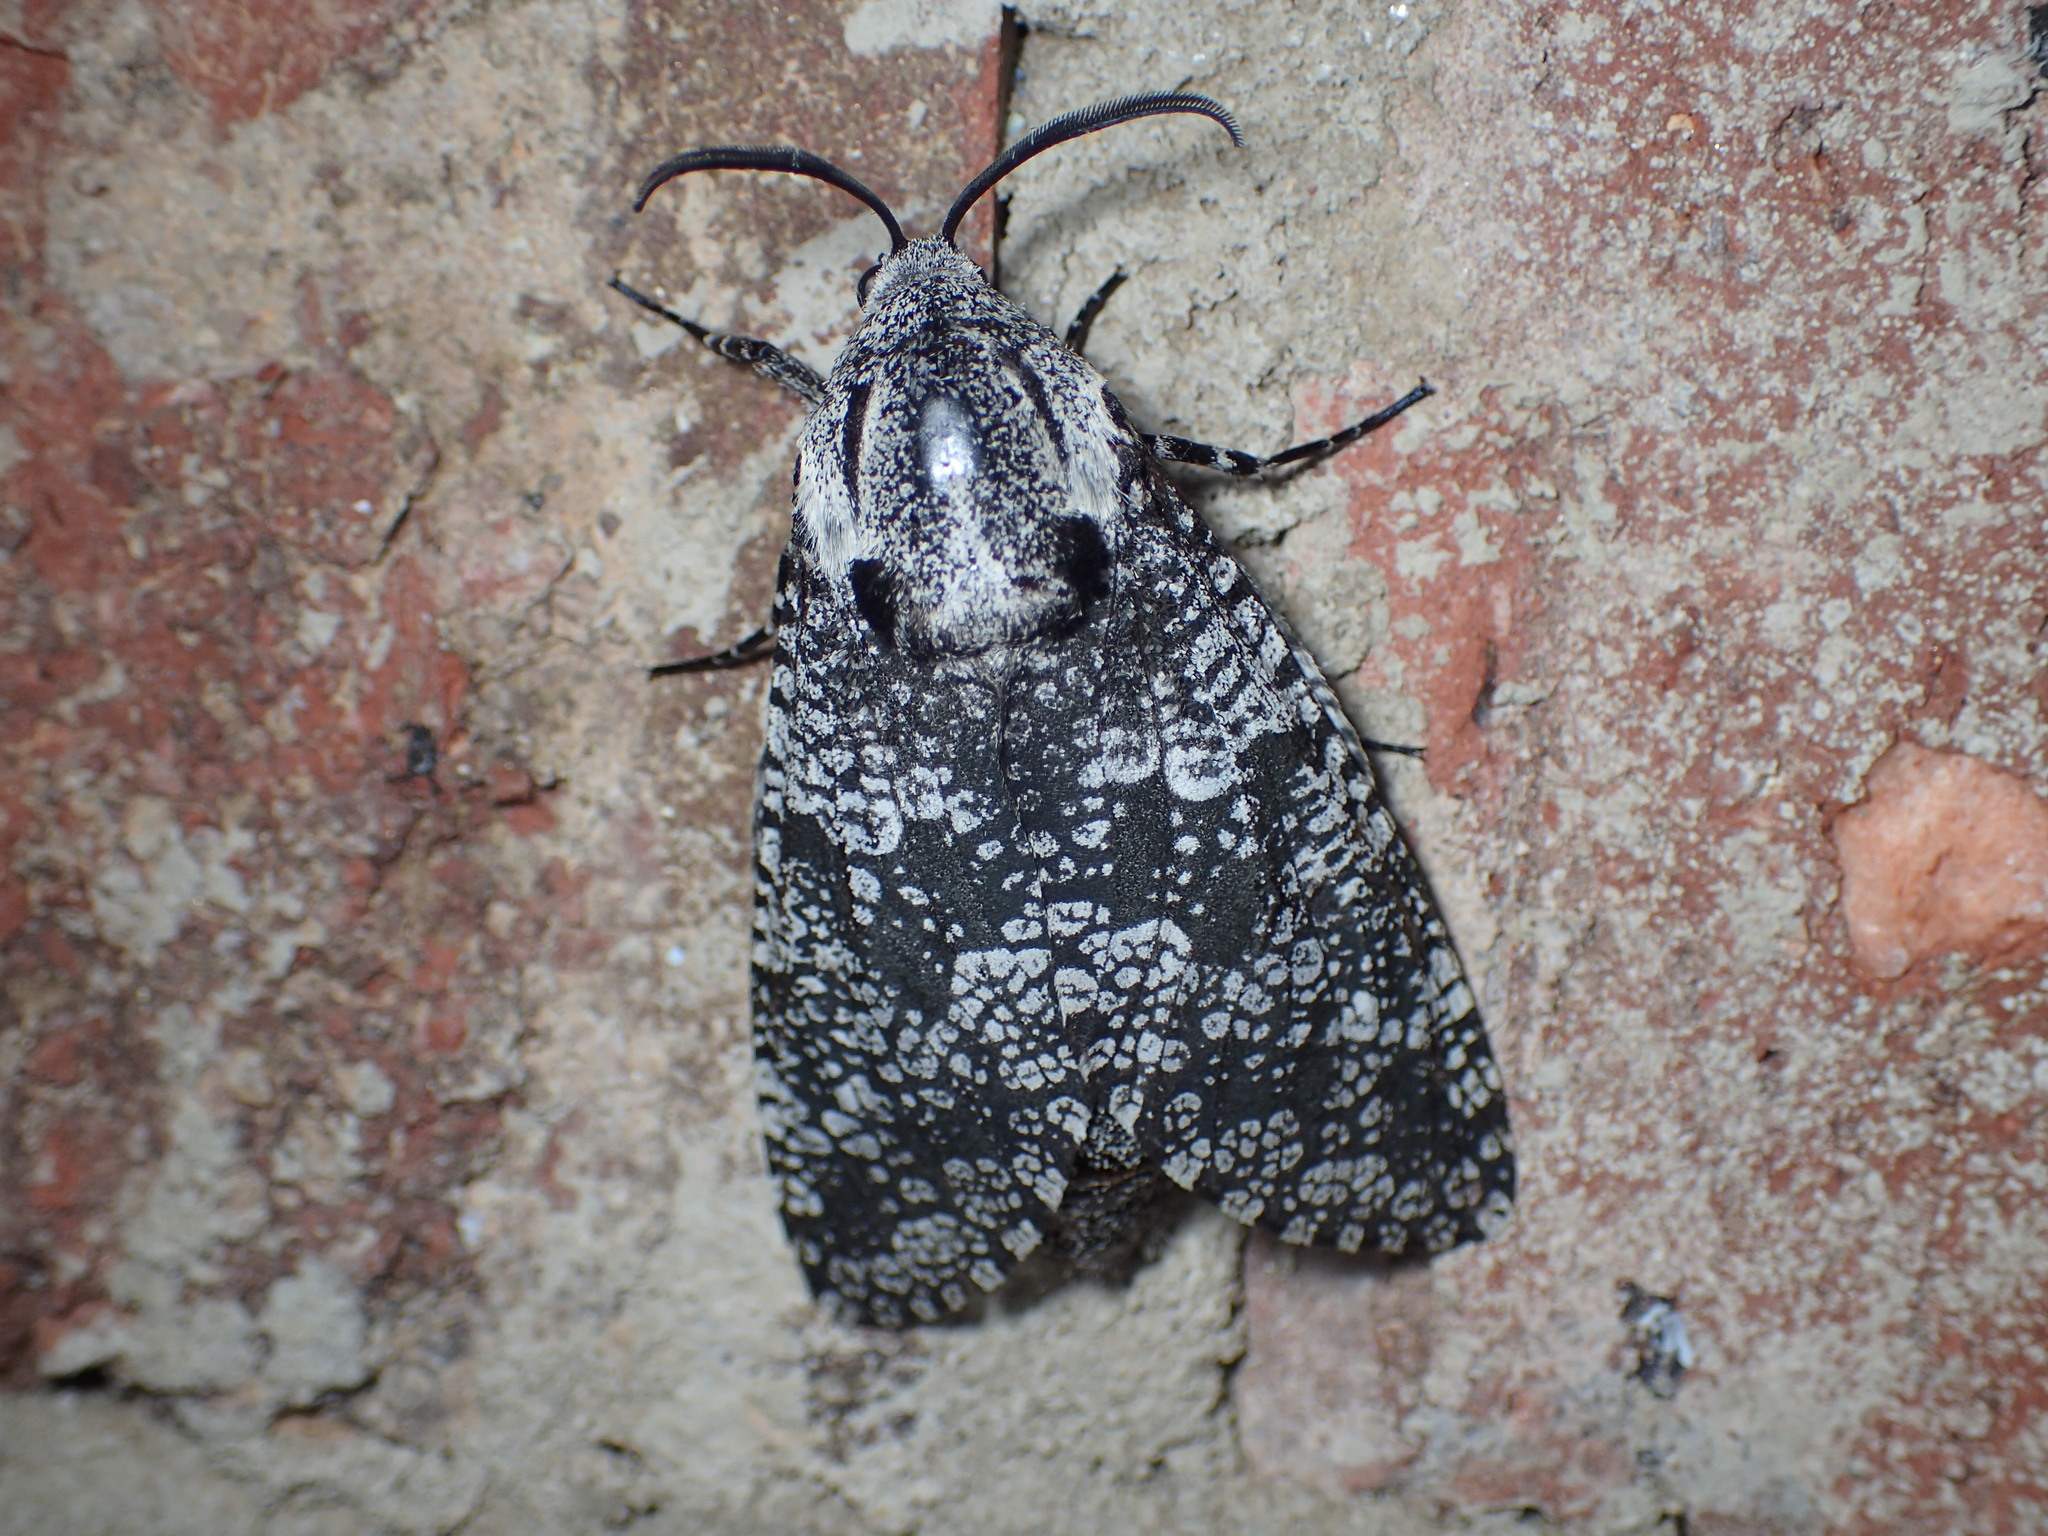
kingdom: Animalia
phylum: Arthropoda
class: Insecta
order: Lepidoptera
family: Cossidae
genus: Prionoxystus
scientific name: Prionoxystus robiniae
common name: Carpenterworm
